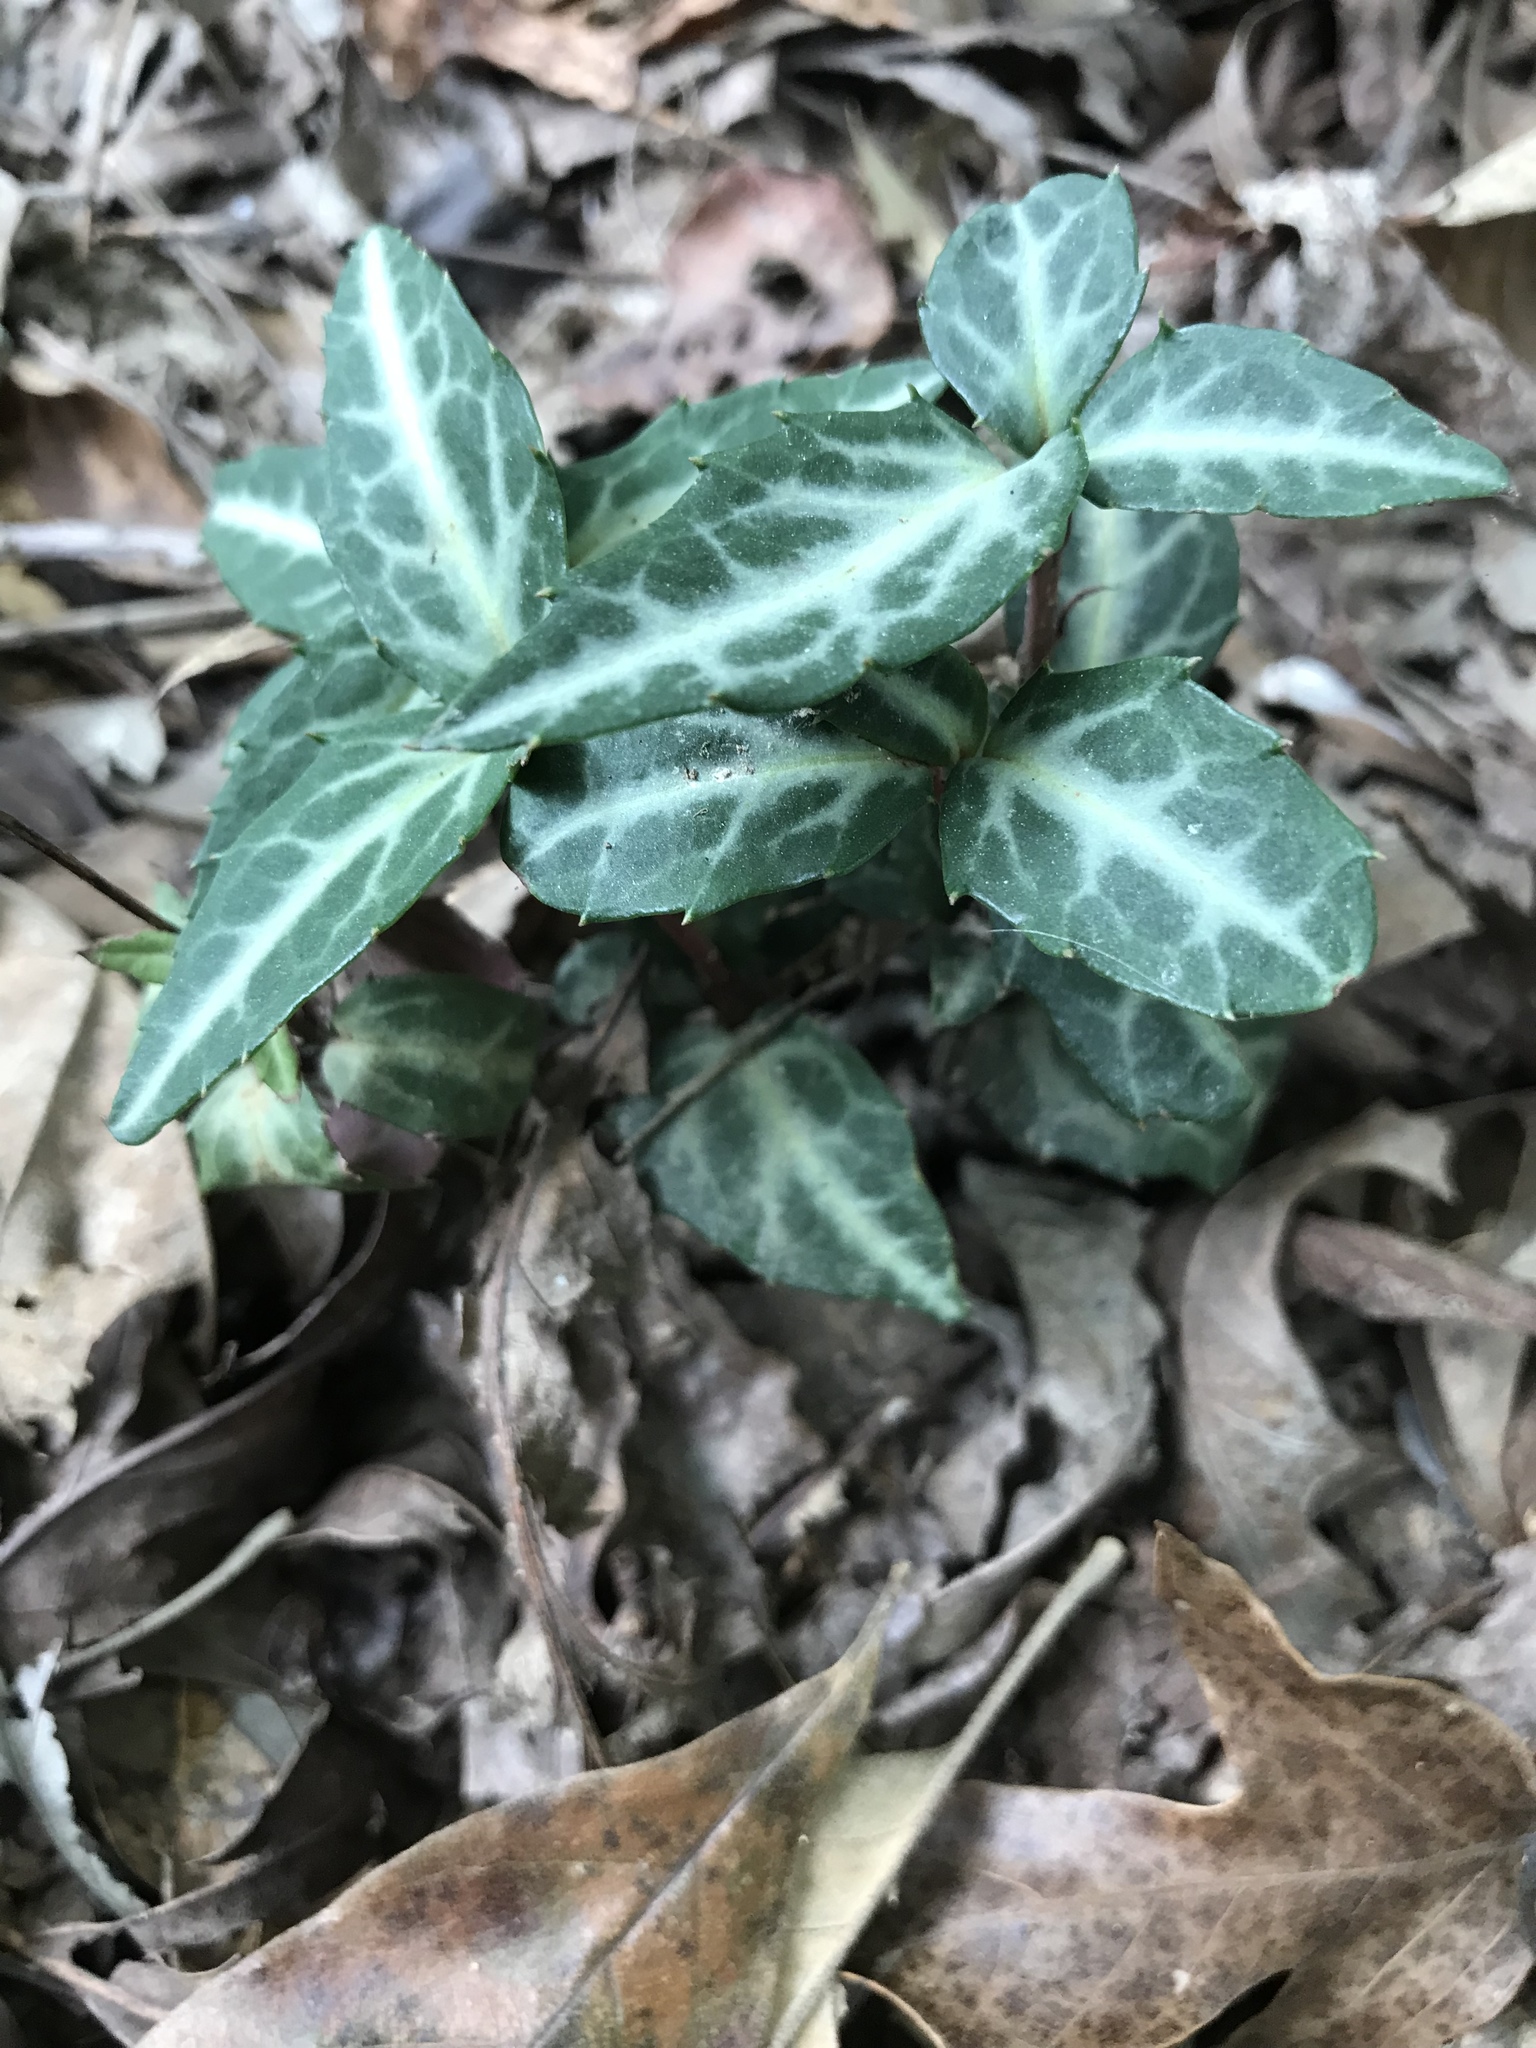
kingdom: Plantae
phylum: Tracheophyta
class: Magnoliopsida
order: Ericales
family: Ericaceae
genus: Chimaphila
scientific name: Chimaphila maculata
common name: Spotted pipsissewa
